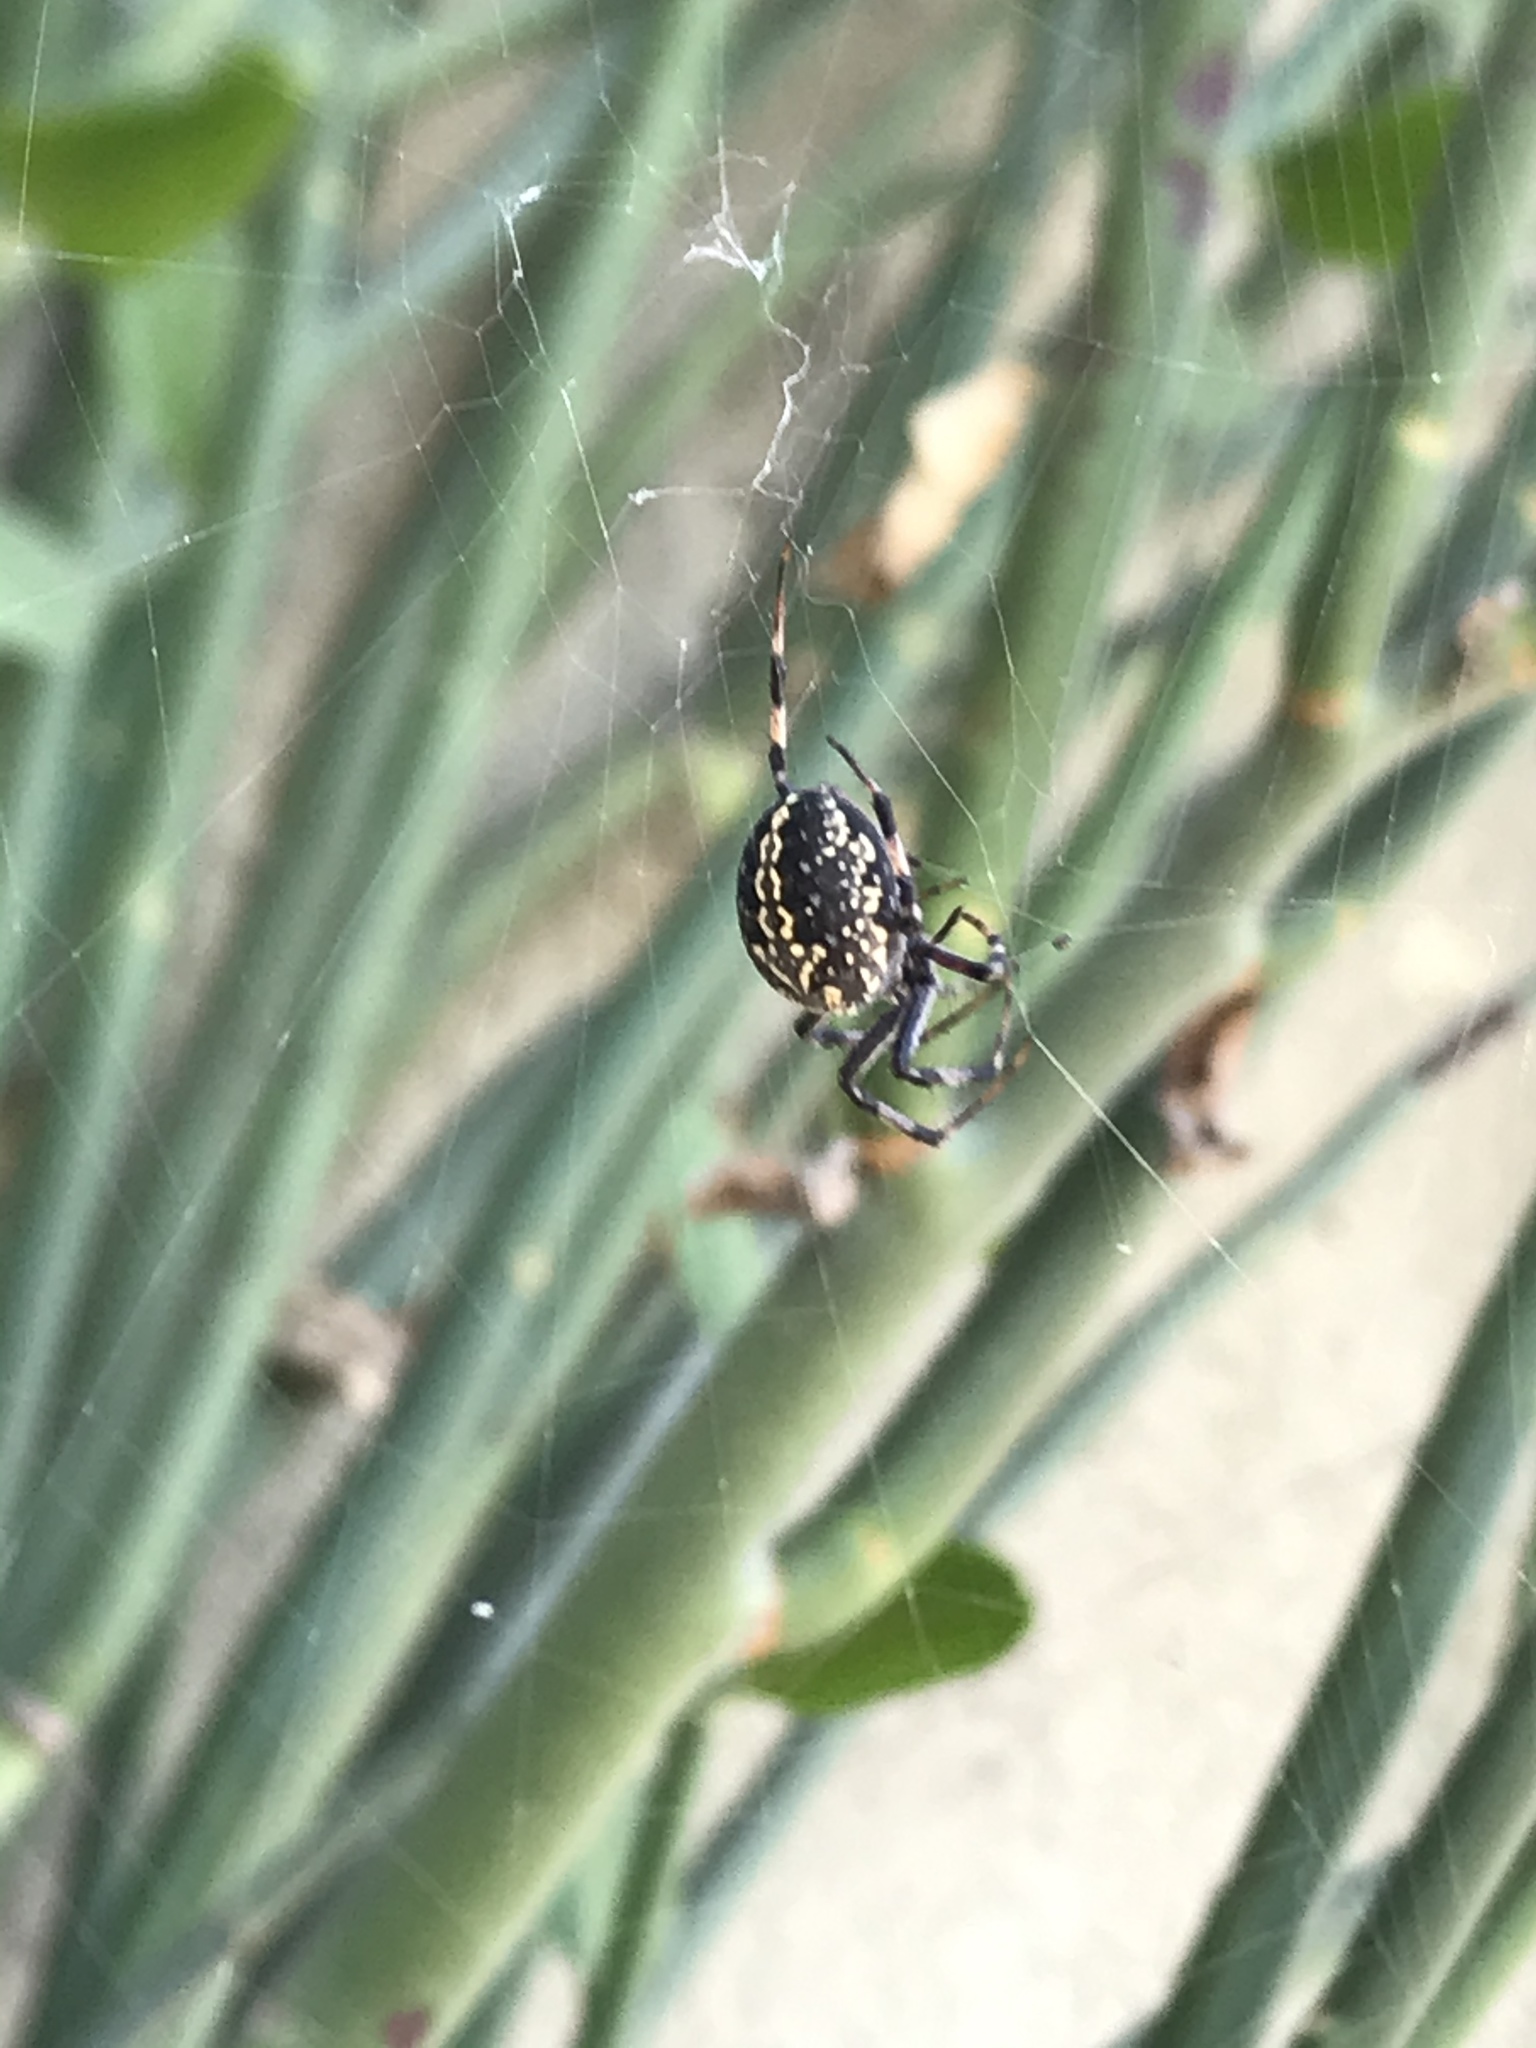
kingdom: Animalia
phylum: Arthropoda
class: Arachnida
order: Araneae
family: Araneidae
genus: Neoscona
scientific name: Neoscona oaxacensis
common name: Orb weavers
